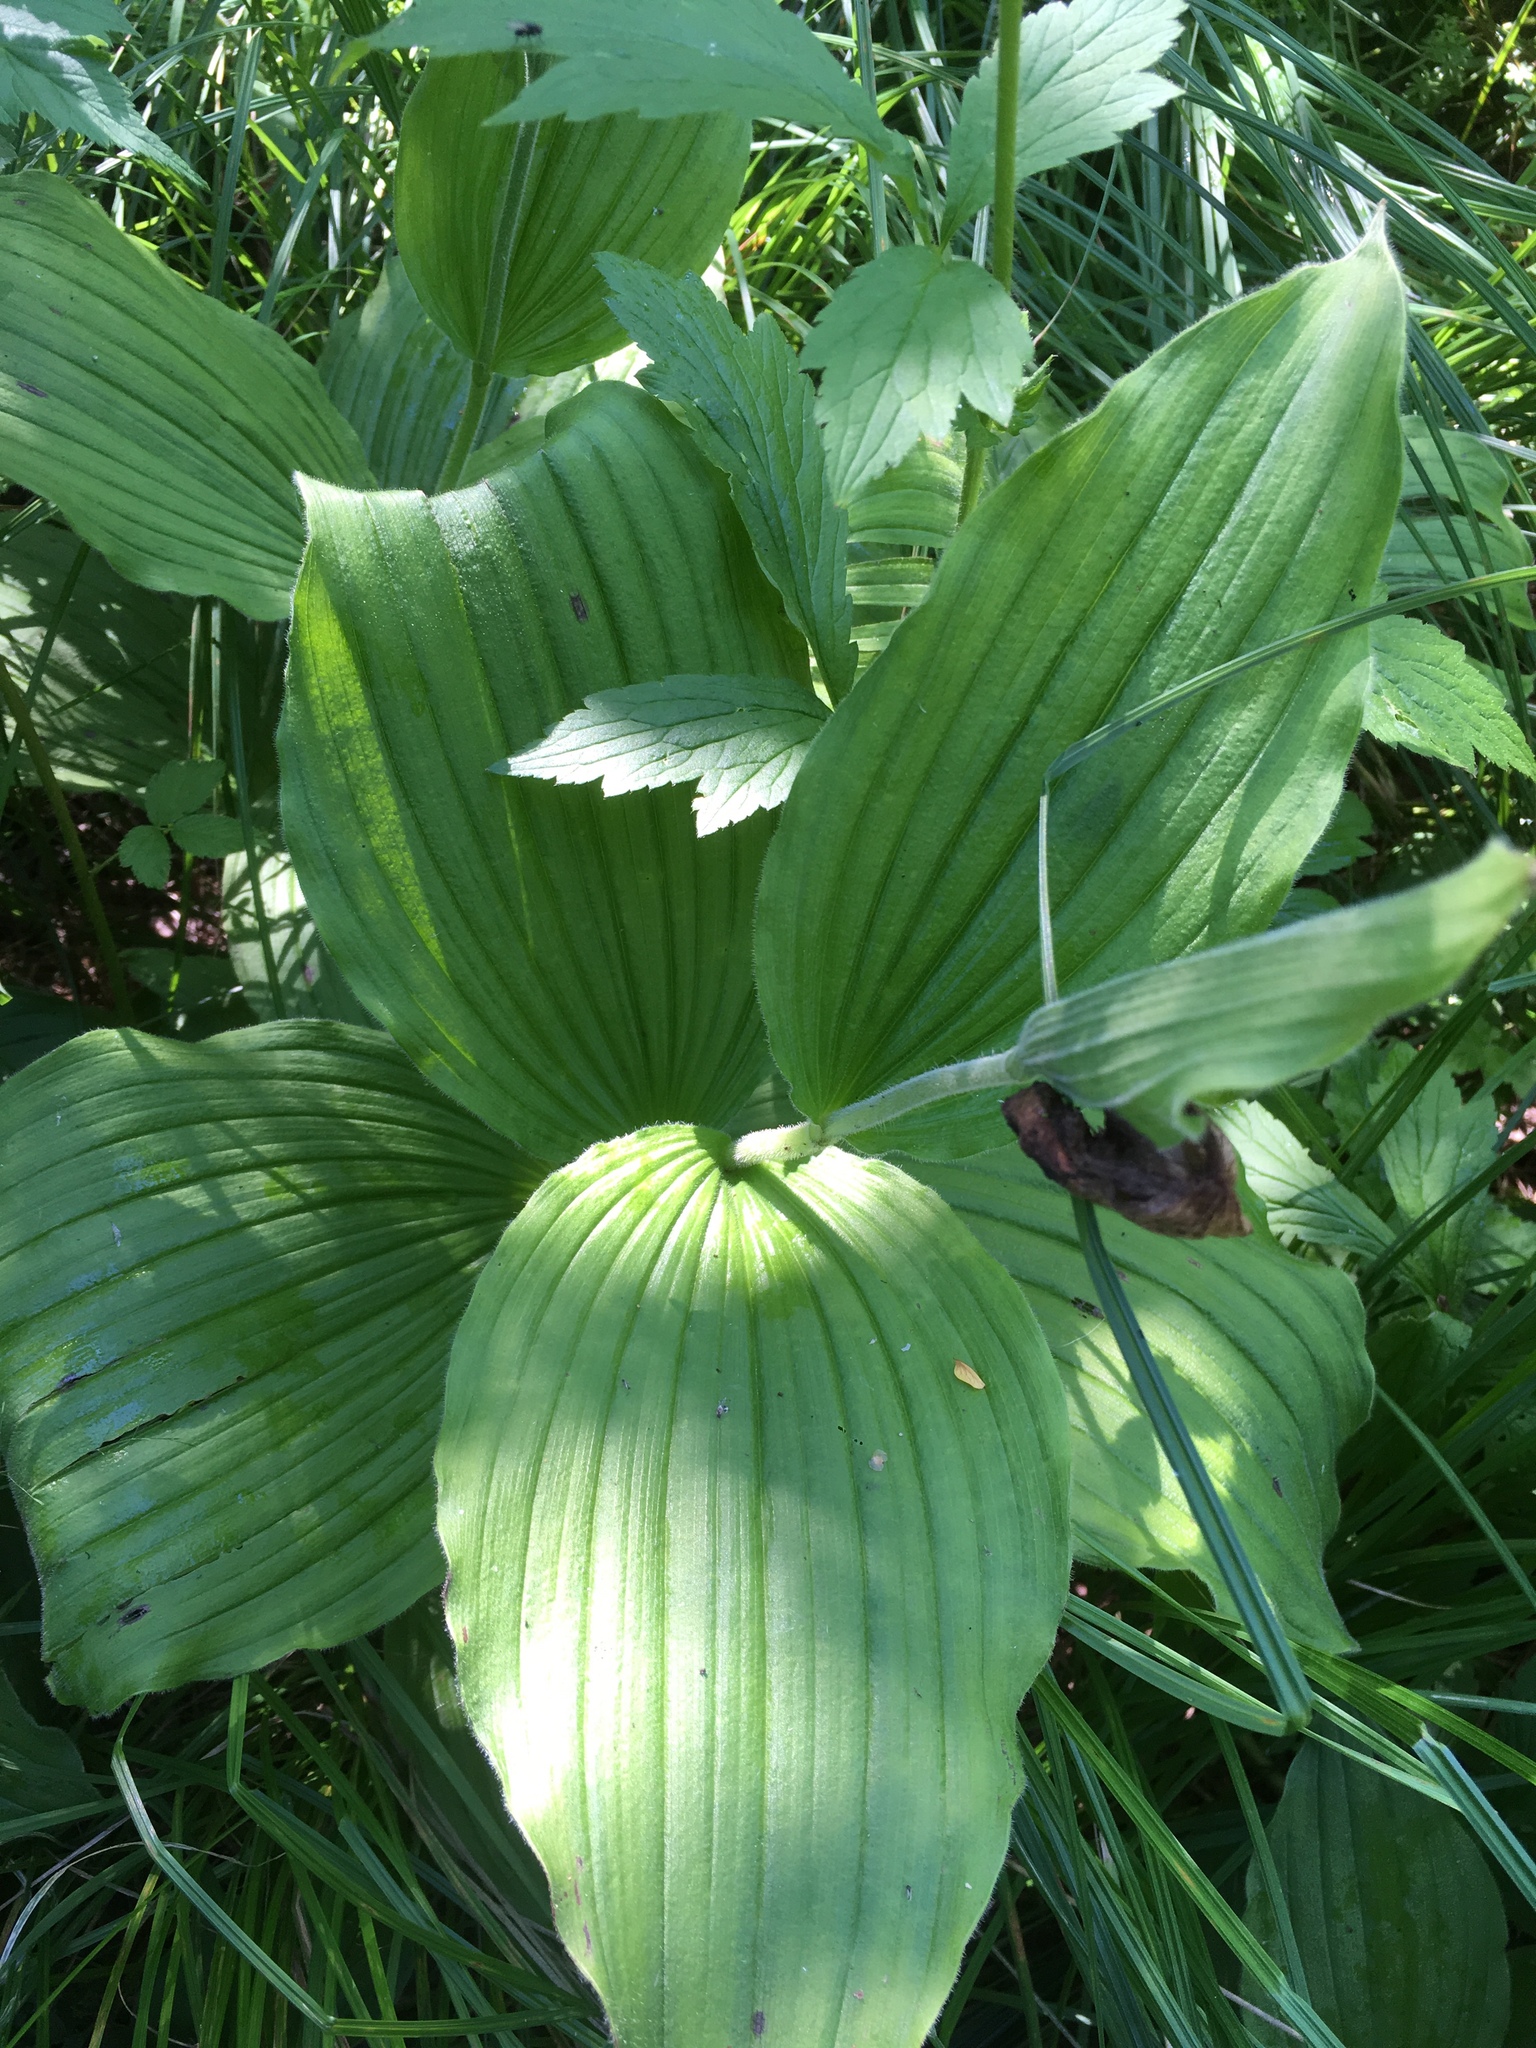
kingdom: Plantae
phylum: Tracheophyta
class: Liliopsida
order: Asparagales
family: Orchidaceae
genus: Cypripedium
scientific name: Cypripedium reginae
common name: Queen lady's-slipper
